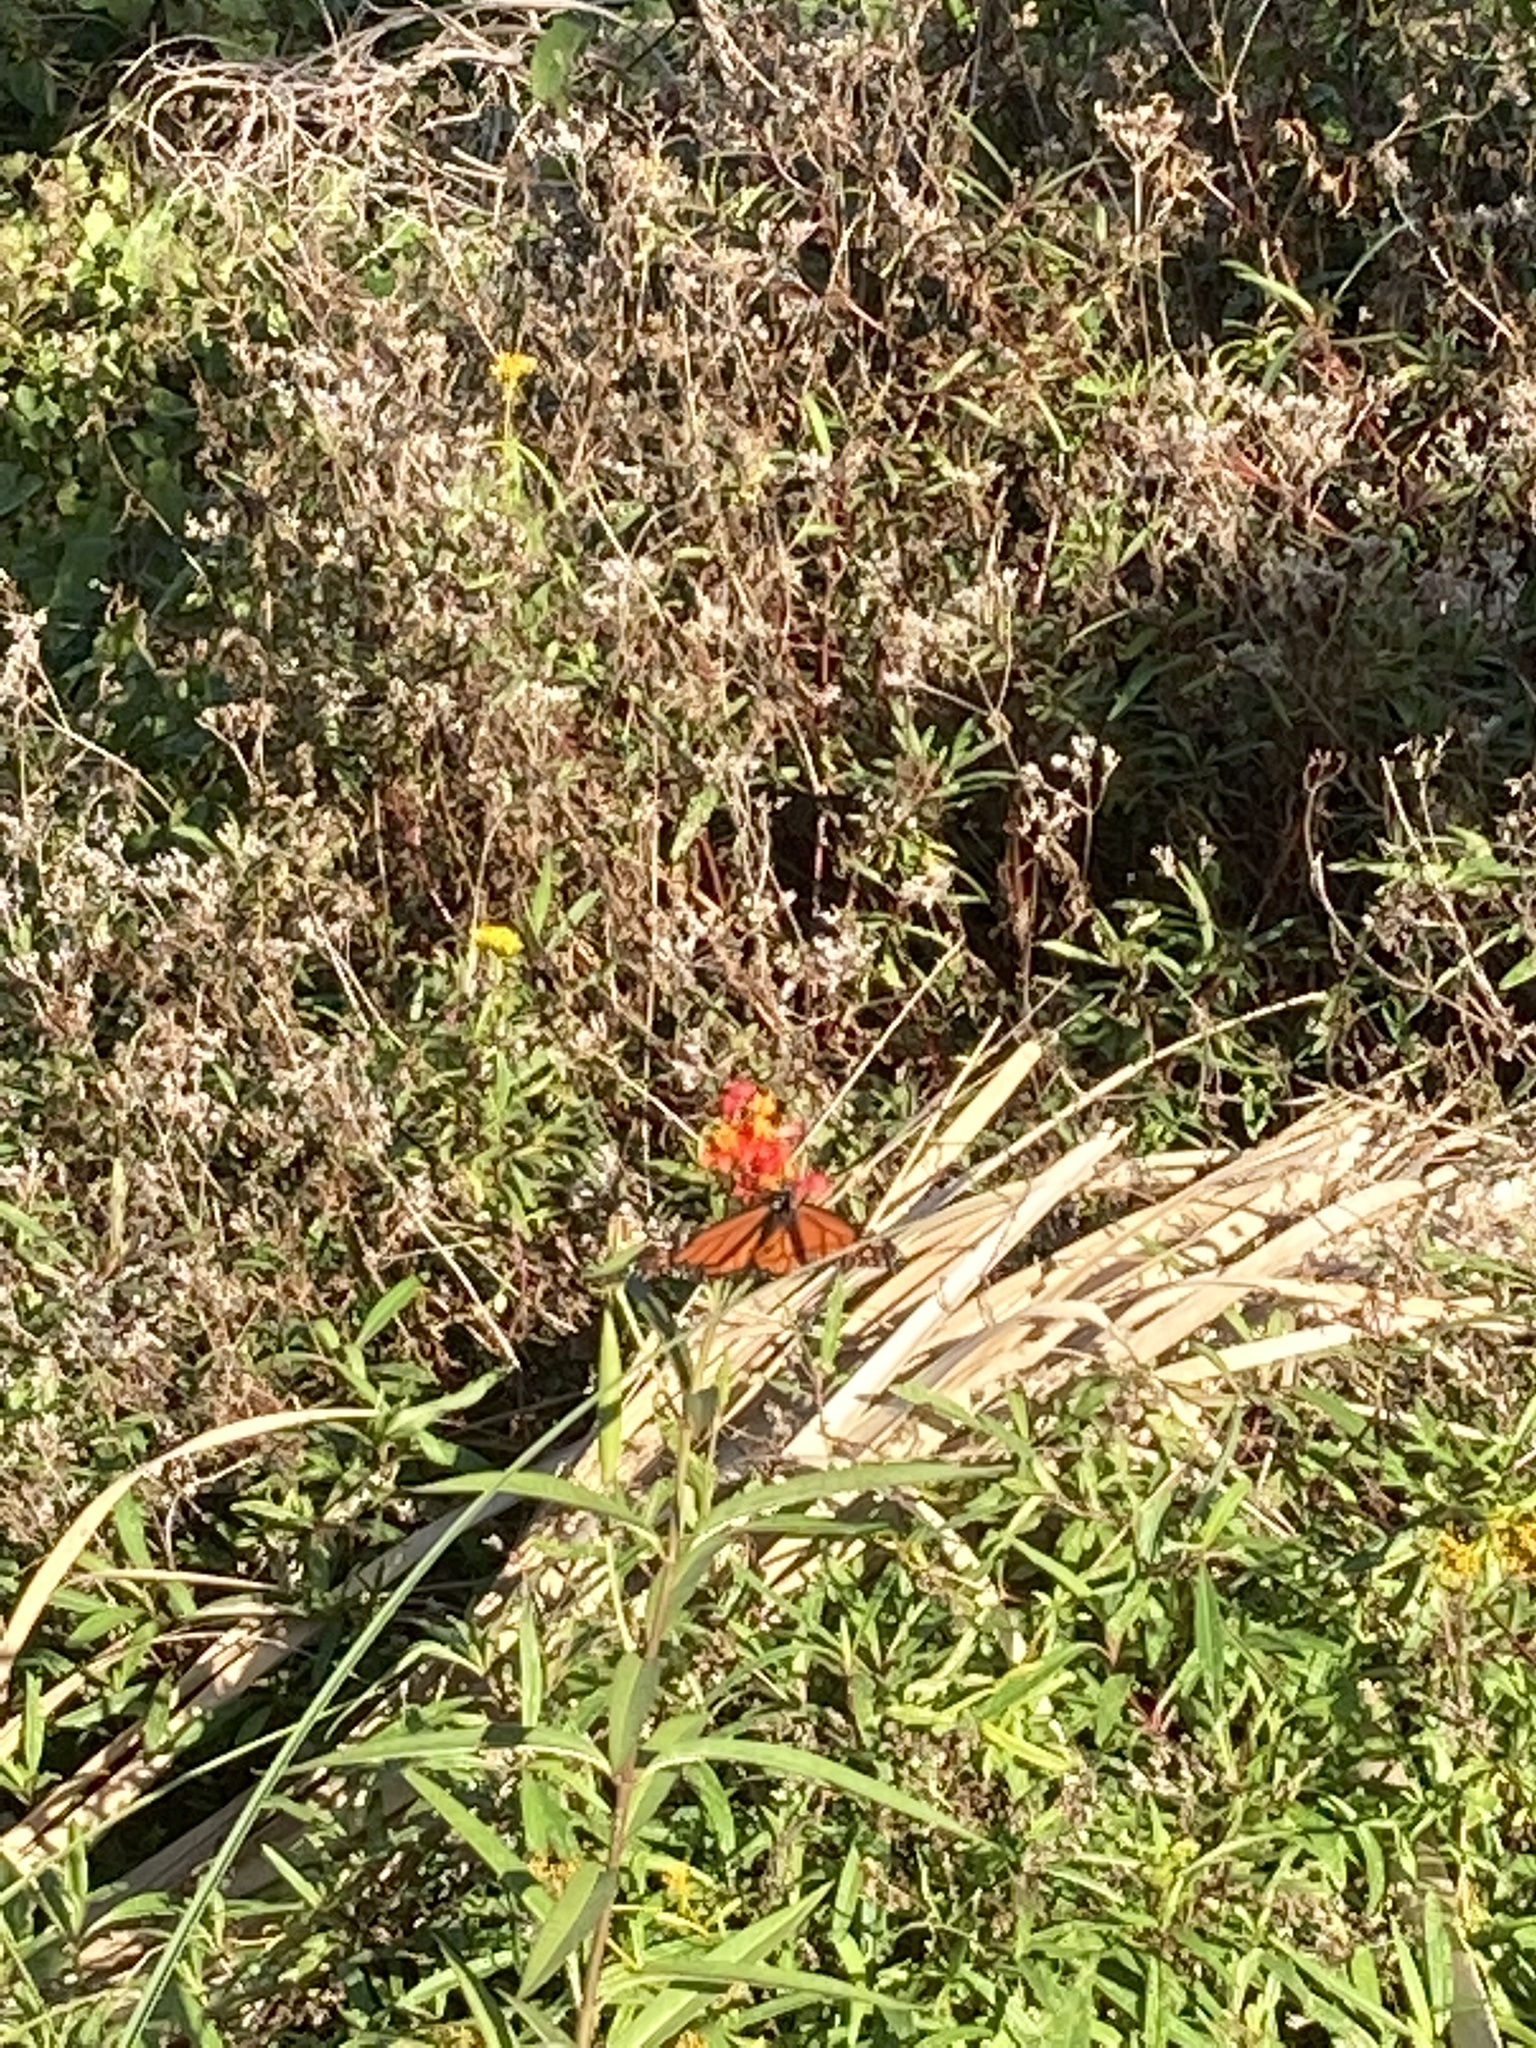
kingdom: Animalia
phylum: Arthropoda
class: Insecta
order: Lepidoptera
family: Nymphalidae
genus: Danaus
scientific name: Danaus plexippus
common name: Monarch
